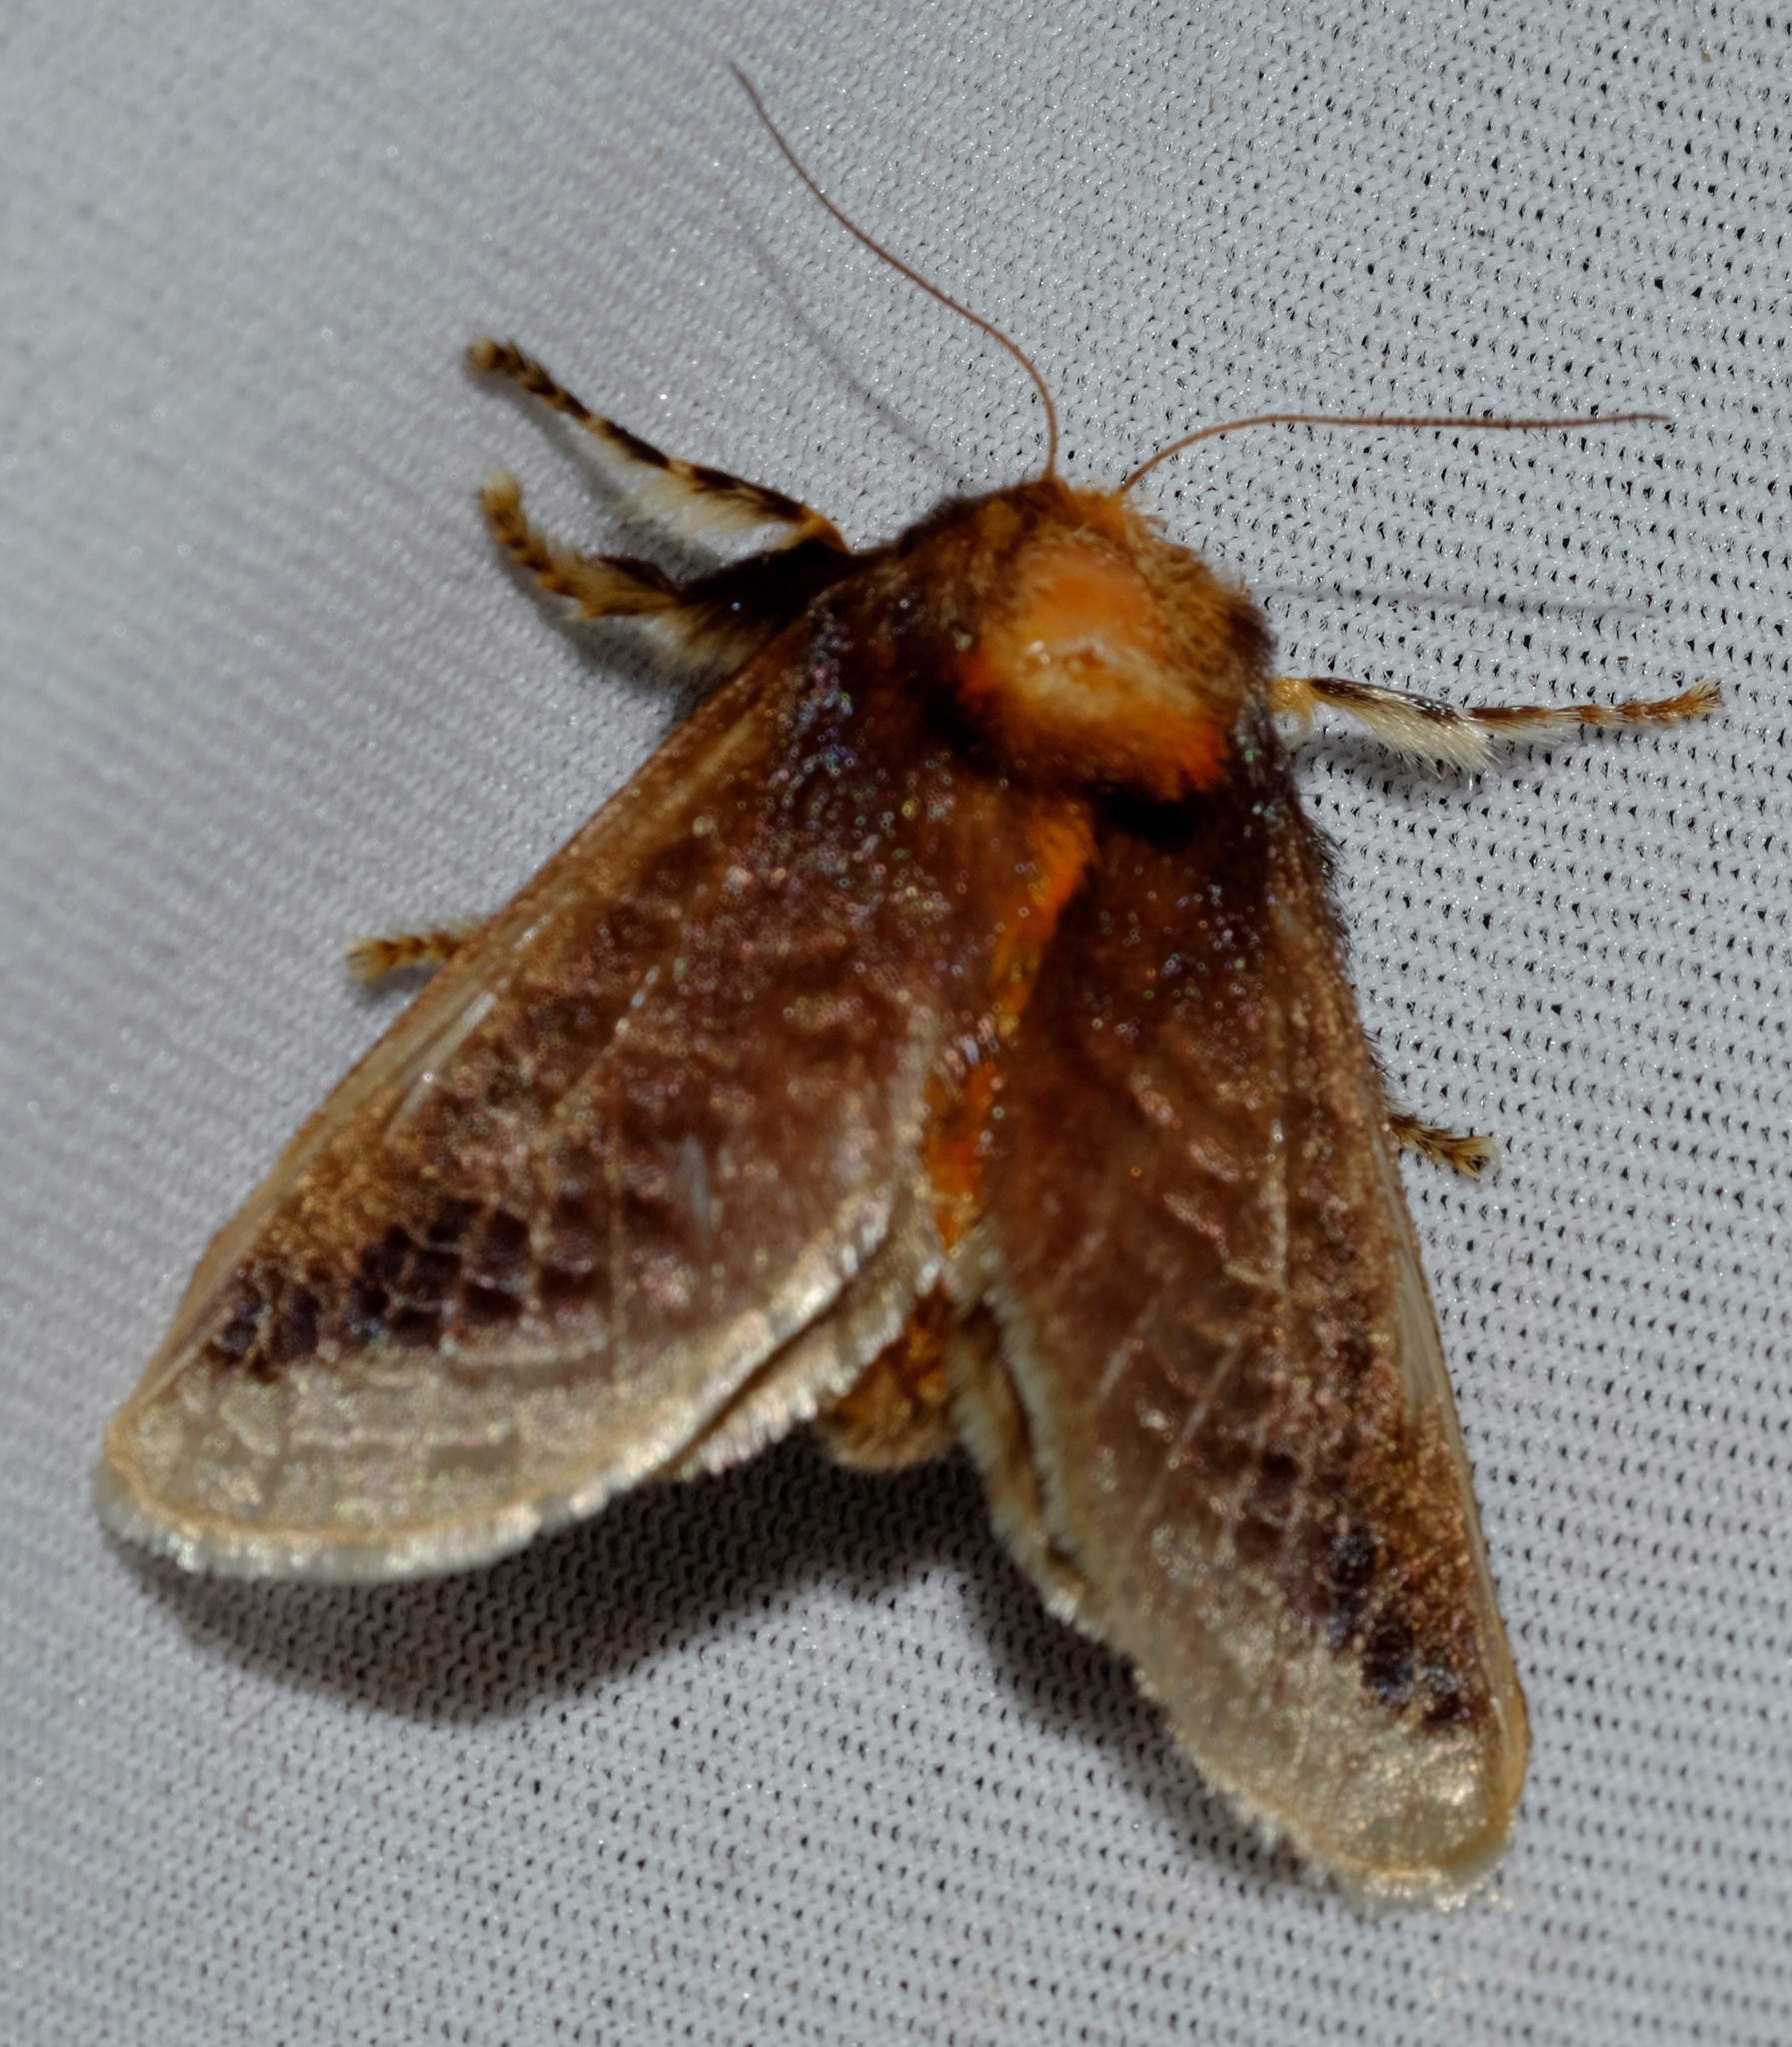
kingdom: Animalia
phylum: Arthropoda
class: Insecta
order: Lepidoptera
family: Limacodidae
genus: Doratifera
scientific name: Doratifera oxleyi
